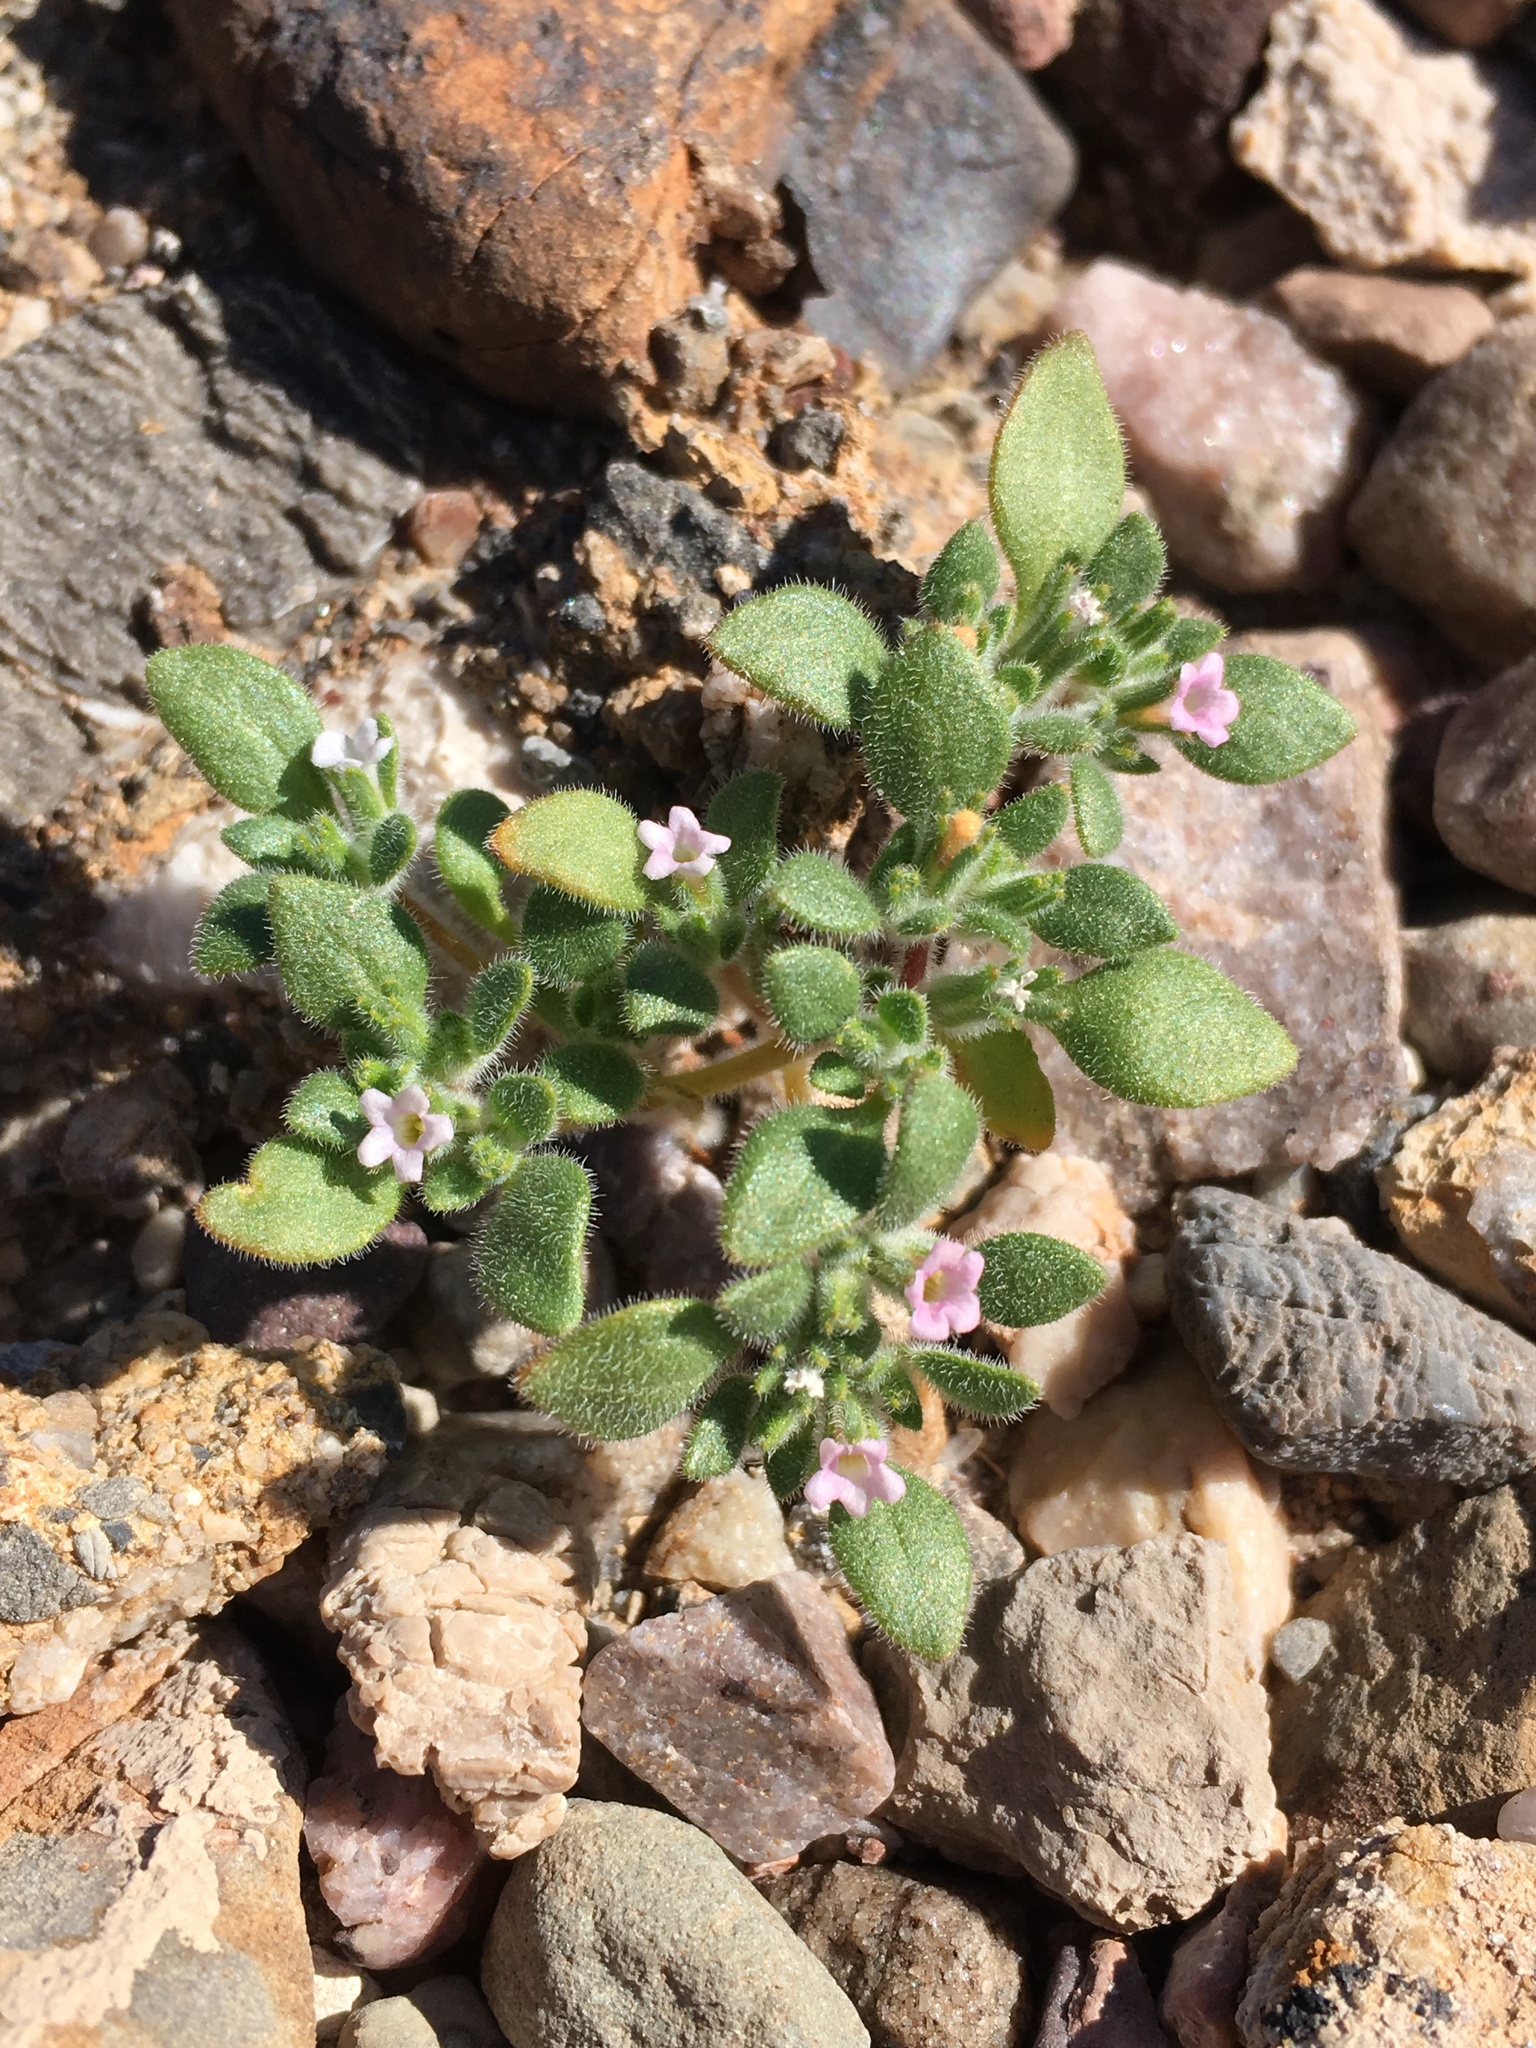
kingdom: Plantae
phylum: Tracheophyta
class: Magnoliopsida
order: Boraginales
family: Namaceae
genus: Nama
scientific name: Nama pusilla
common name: Eggleaf nama
